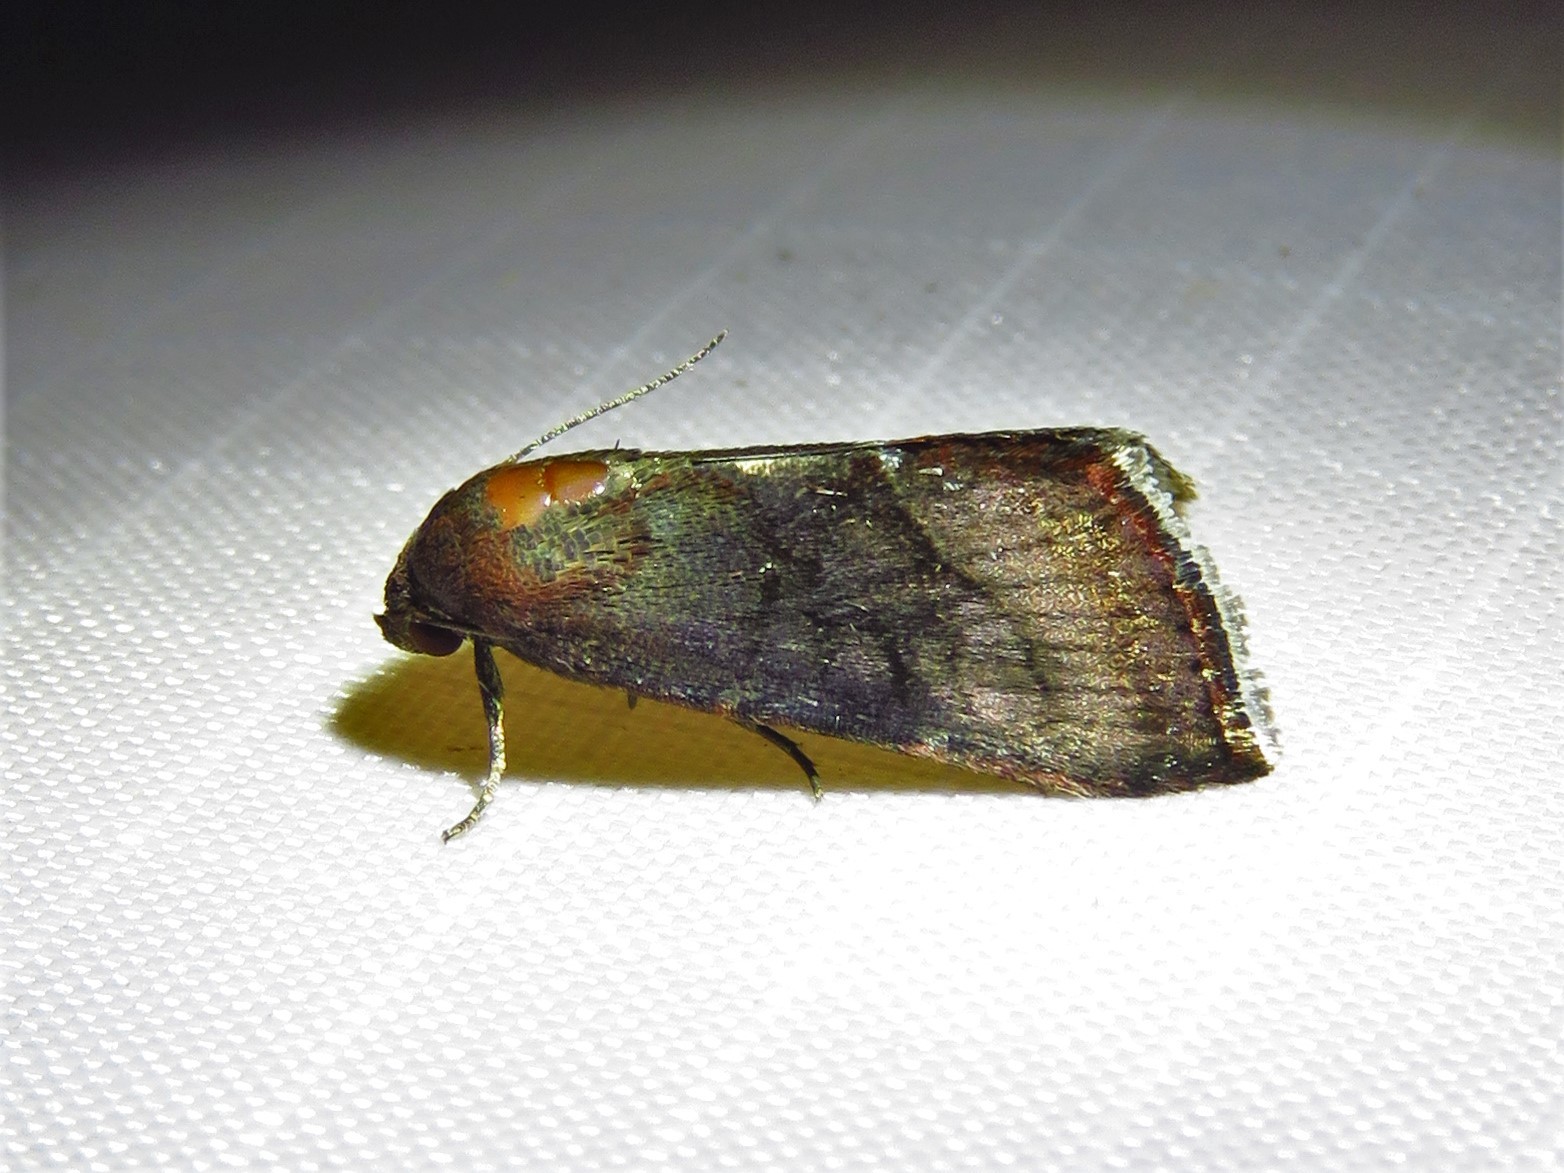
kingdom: Animalia
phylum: Arthropoda
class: Insecta
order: Lepidoptera
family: Noctuidae
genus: Galgula
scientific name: Galgula partita
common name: Wedgeling
